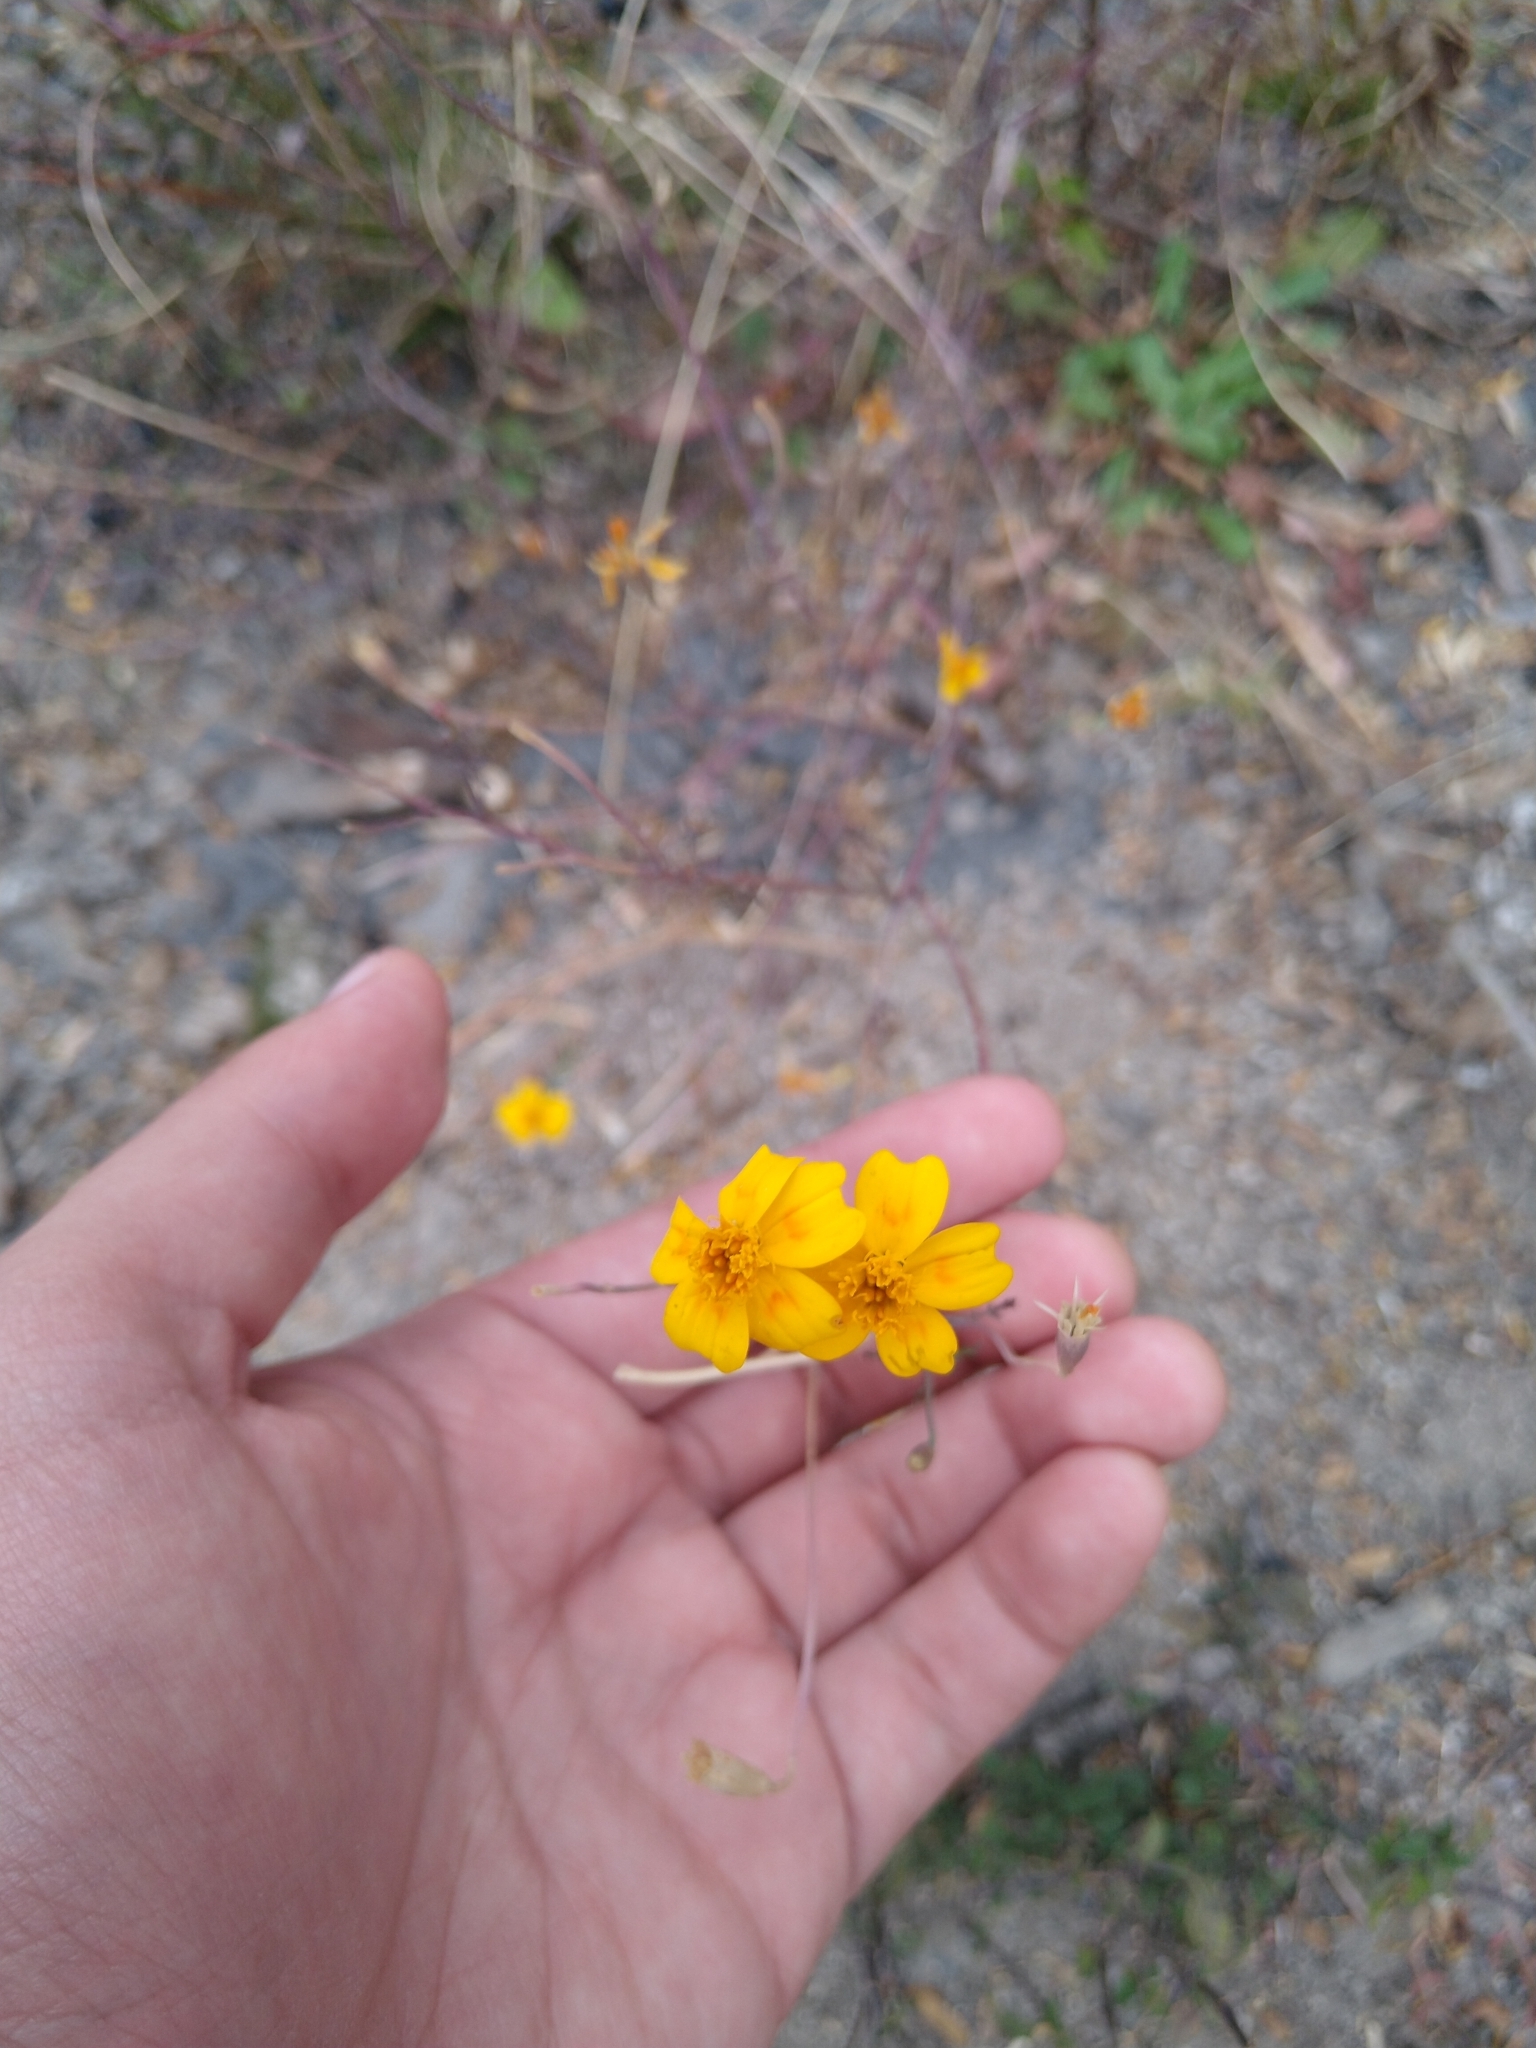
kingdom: Plantae
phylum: Tracheophyta
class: Magnoliopsida
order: Asterales
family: Asteraceae
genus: Tagetes
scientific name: Tagetes lunulata
